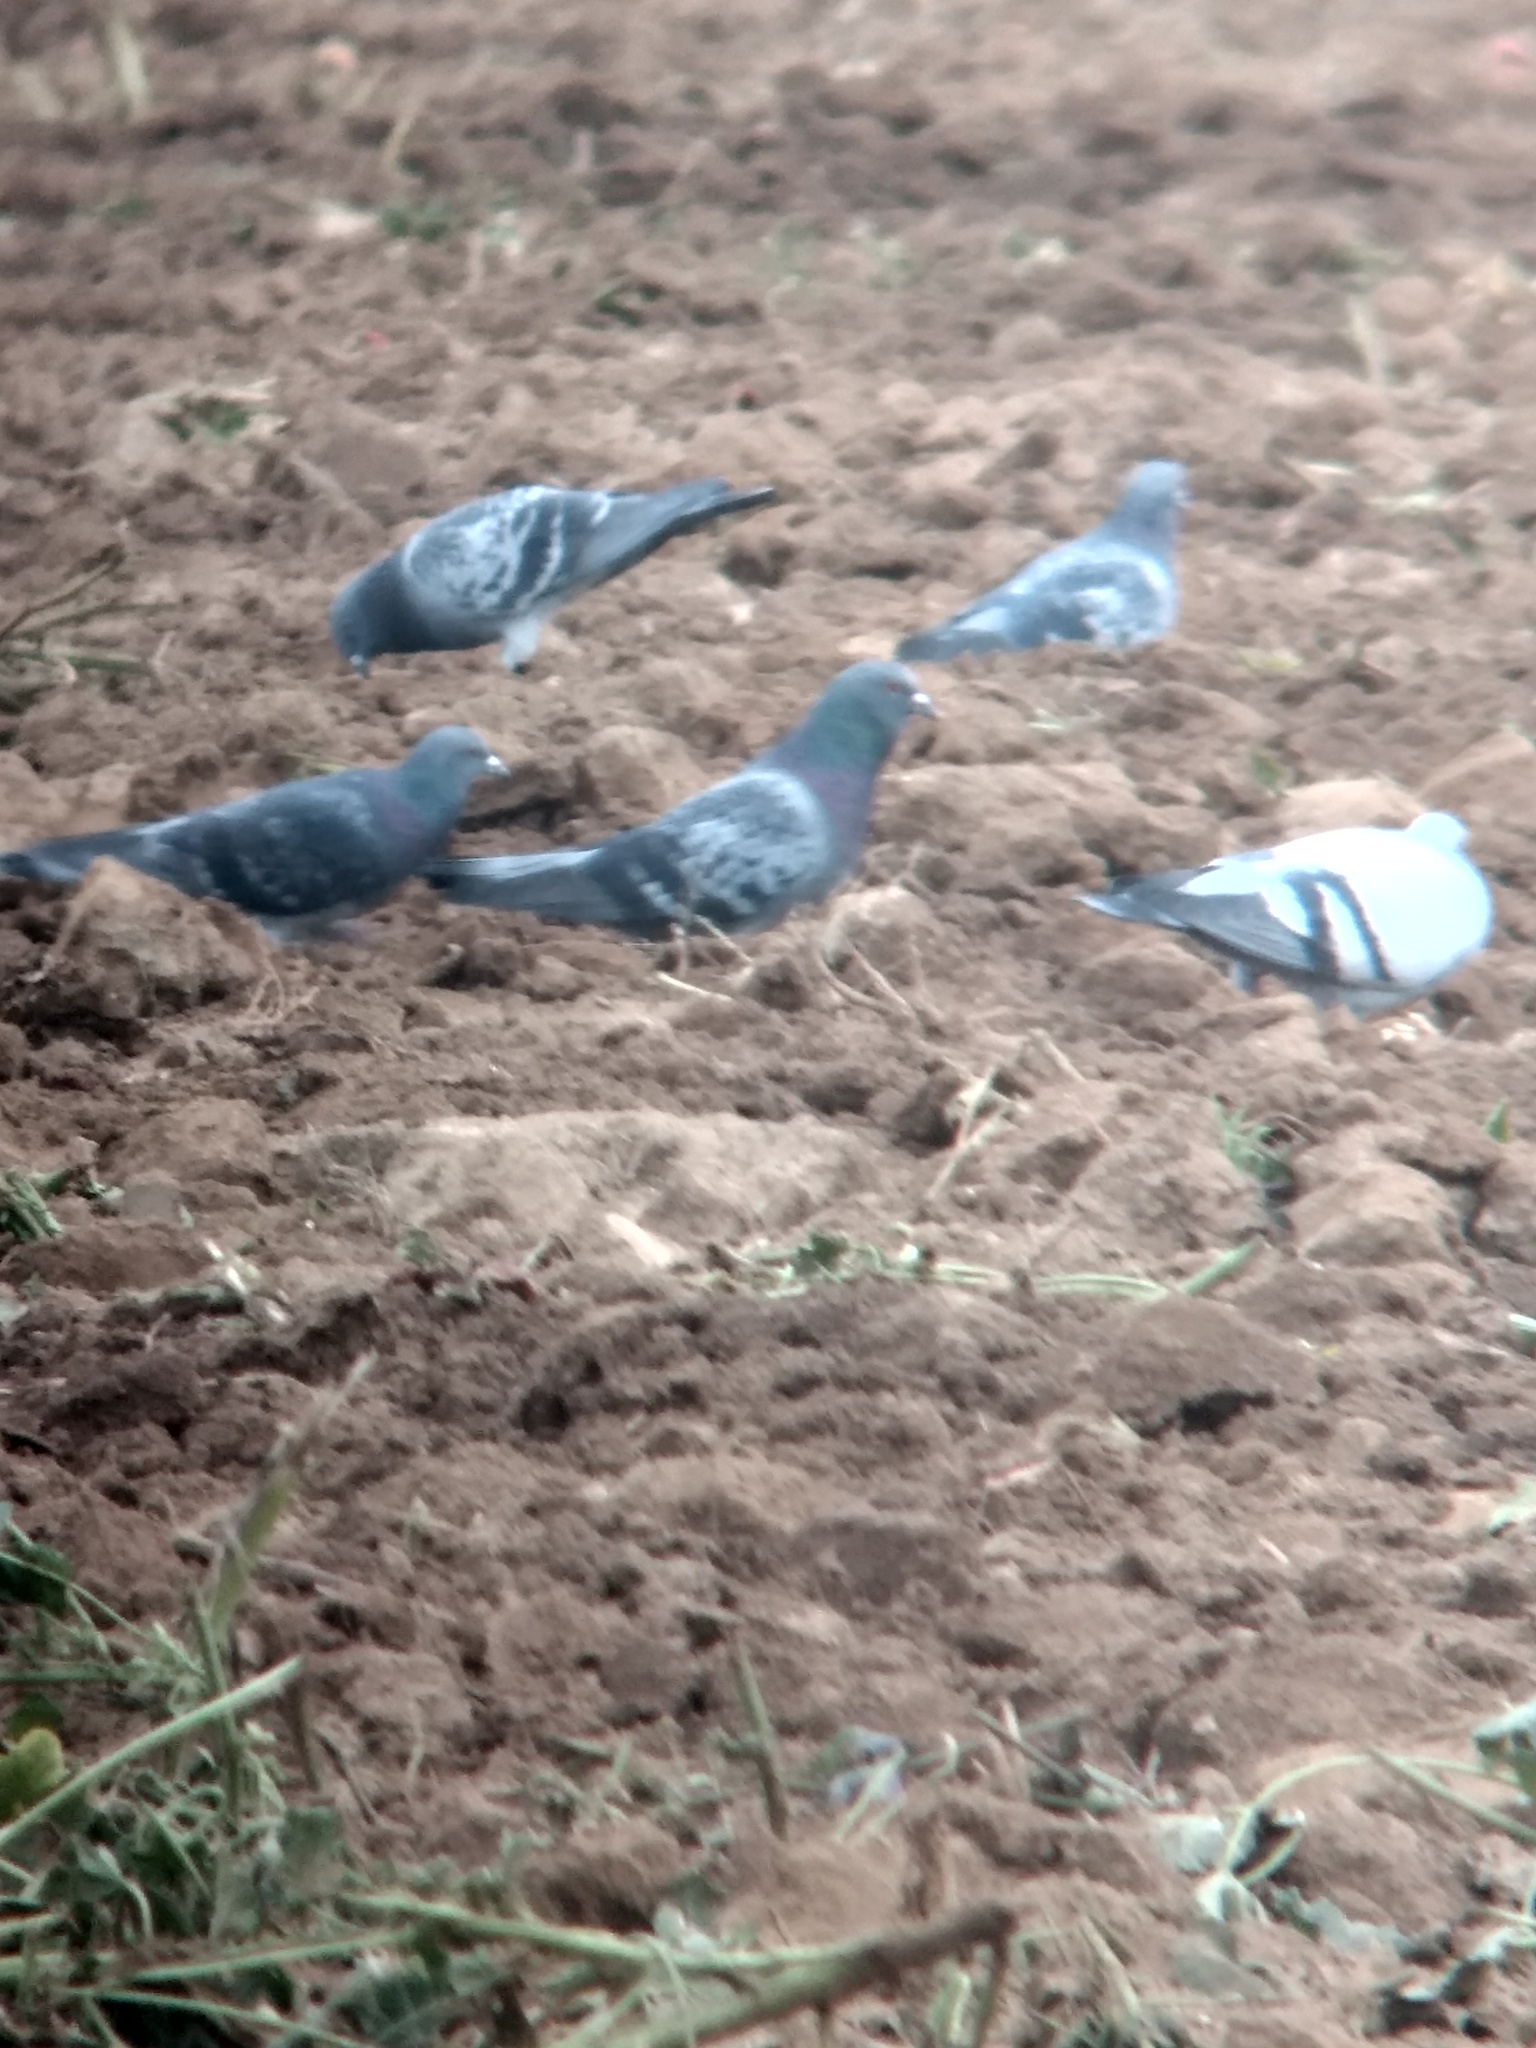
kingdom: Animalia
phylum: Chordata
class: Aves
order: Columbiformes
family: Columbidae
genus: Columba
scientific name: Columba livia
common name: Rock pigeon
